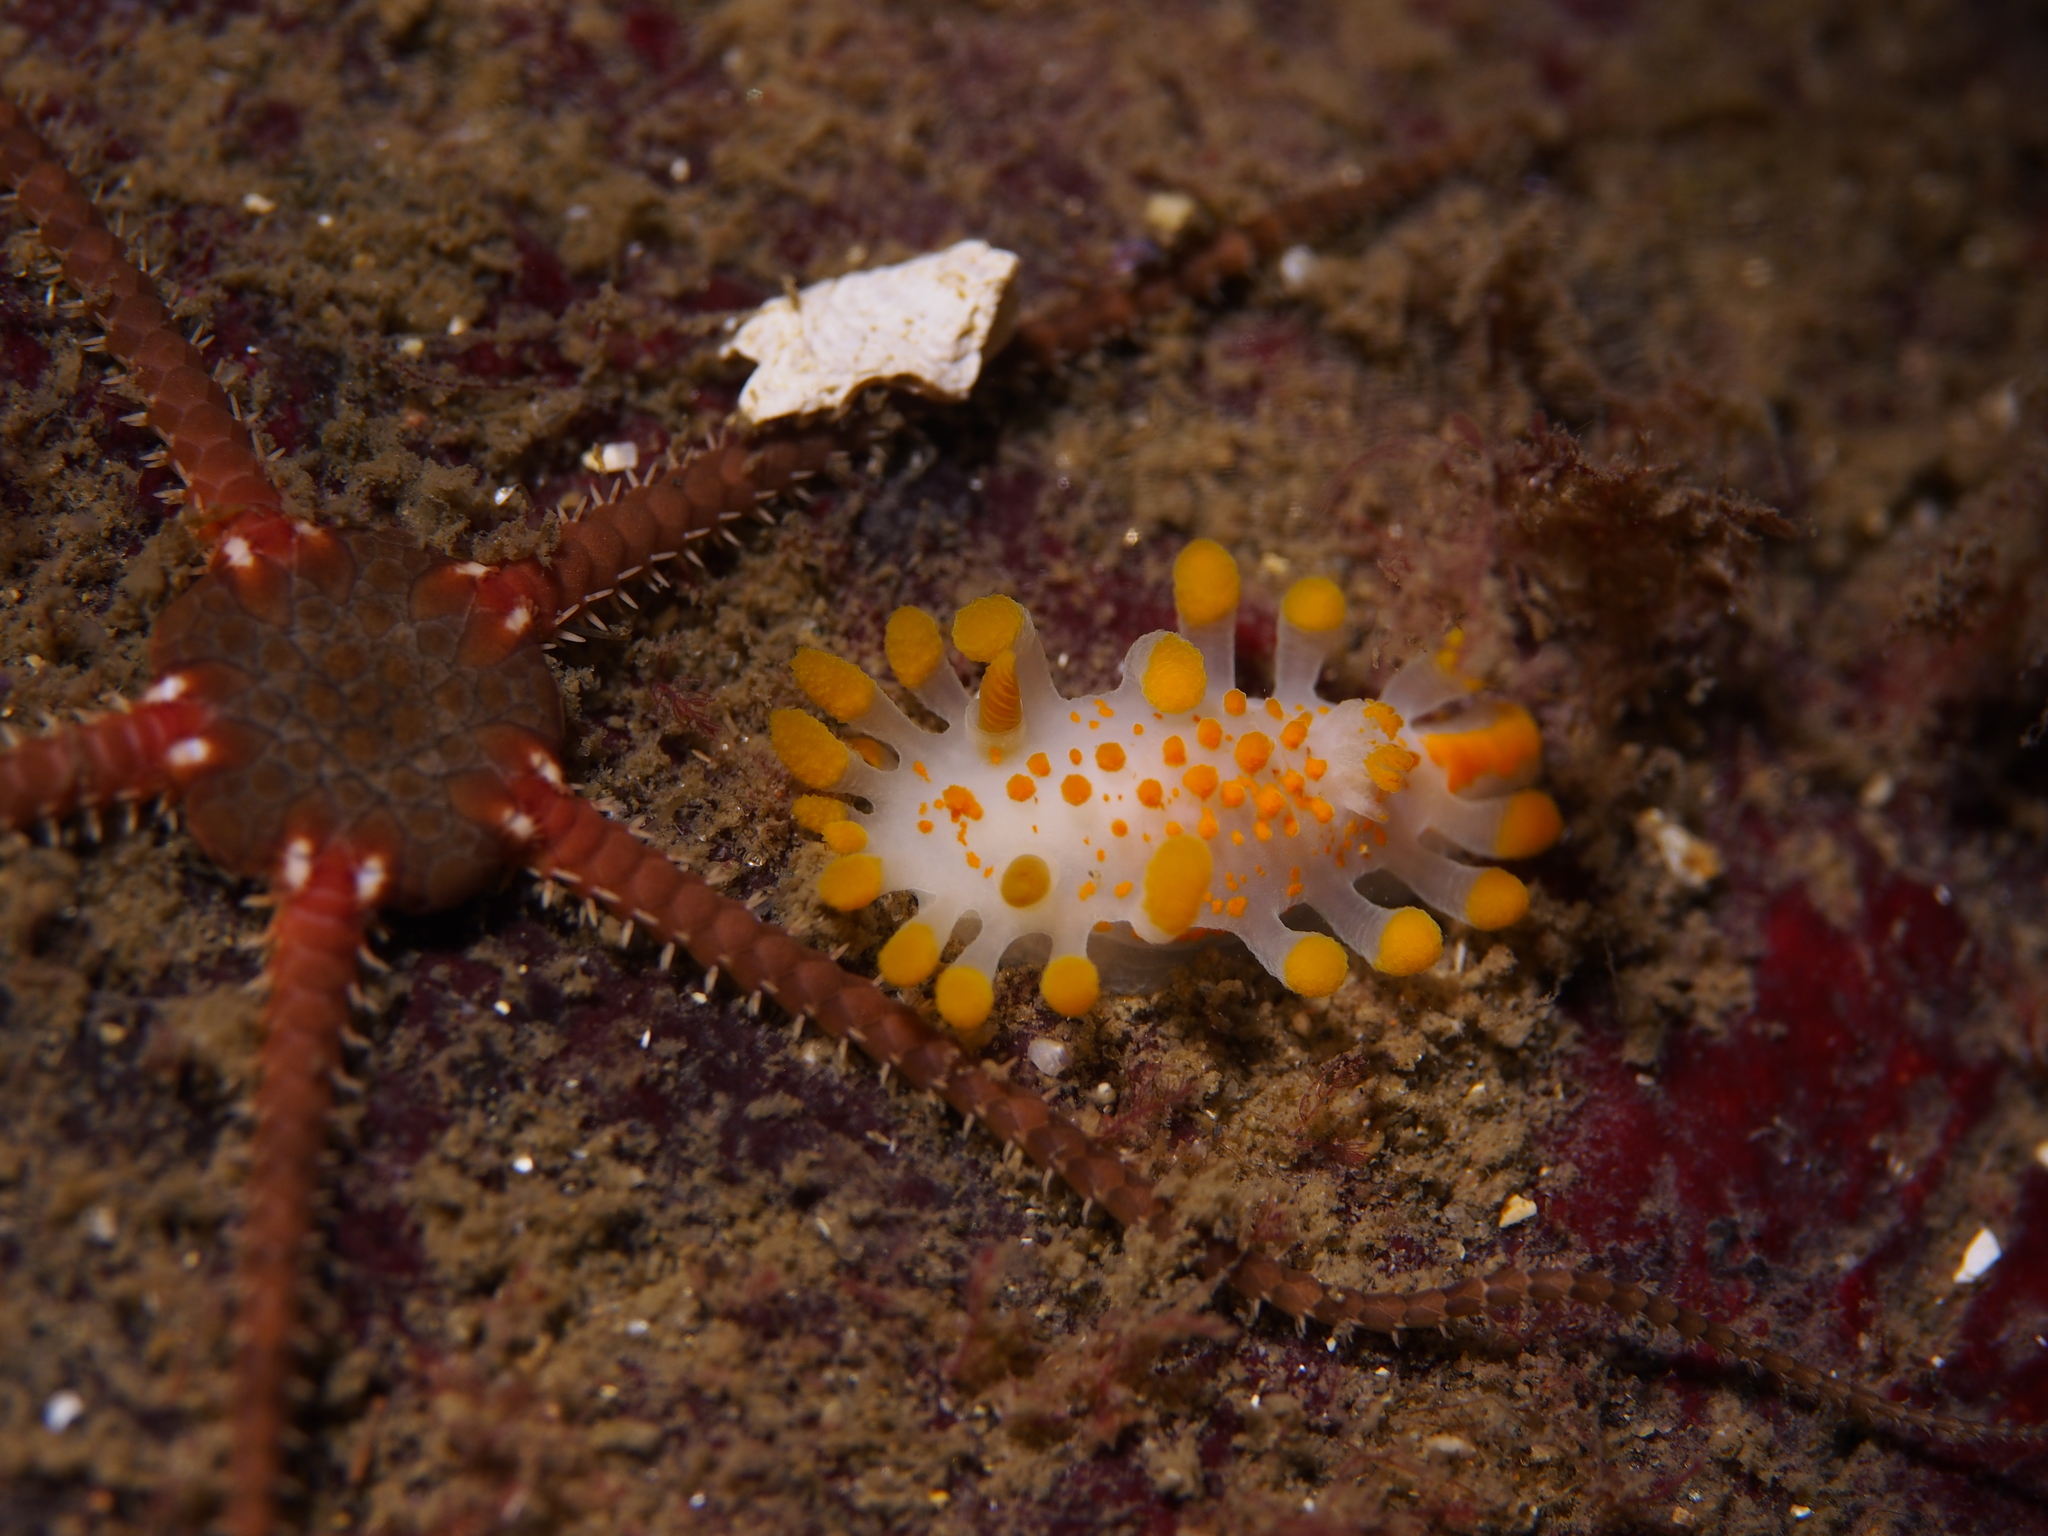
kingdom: Animalia
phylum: Mollusca
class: Gastropoda
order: Nudibranchia
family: Polyceridae
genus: Limacia
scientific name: Limacia clavigera
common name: Orange-clubbed sea slug
